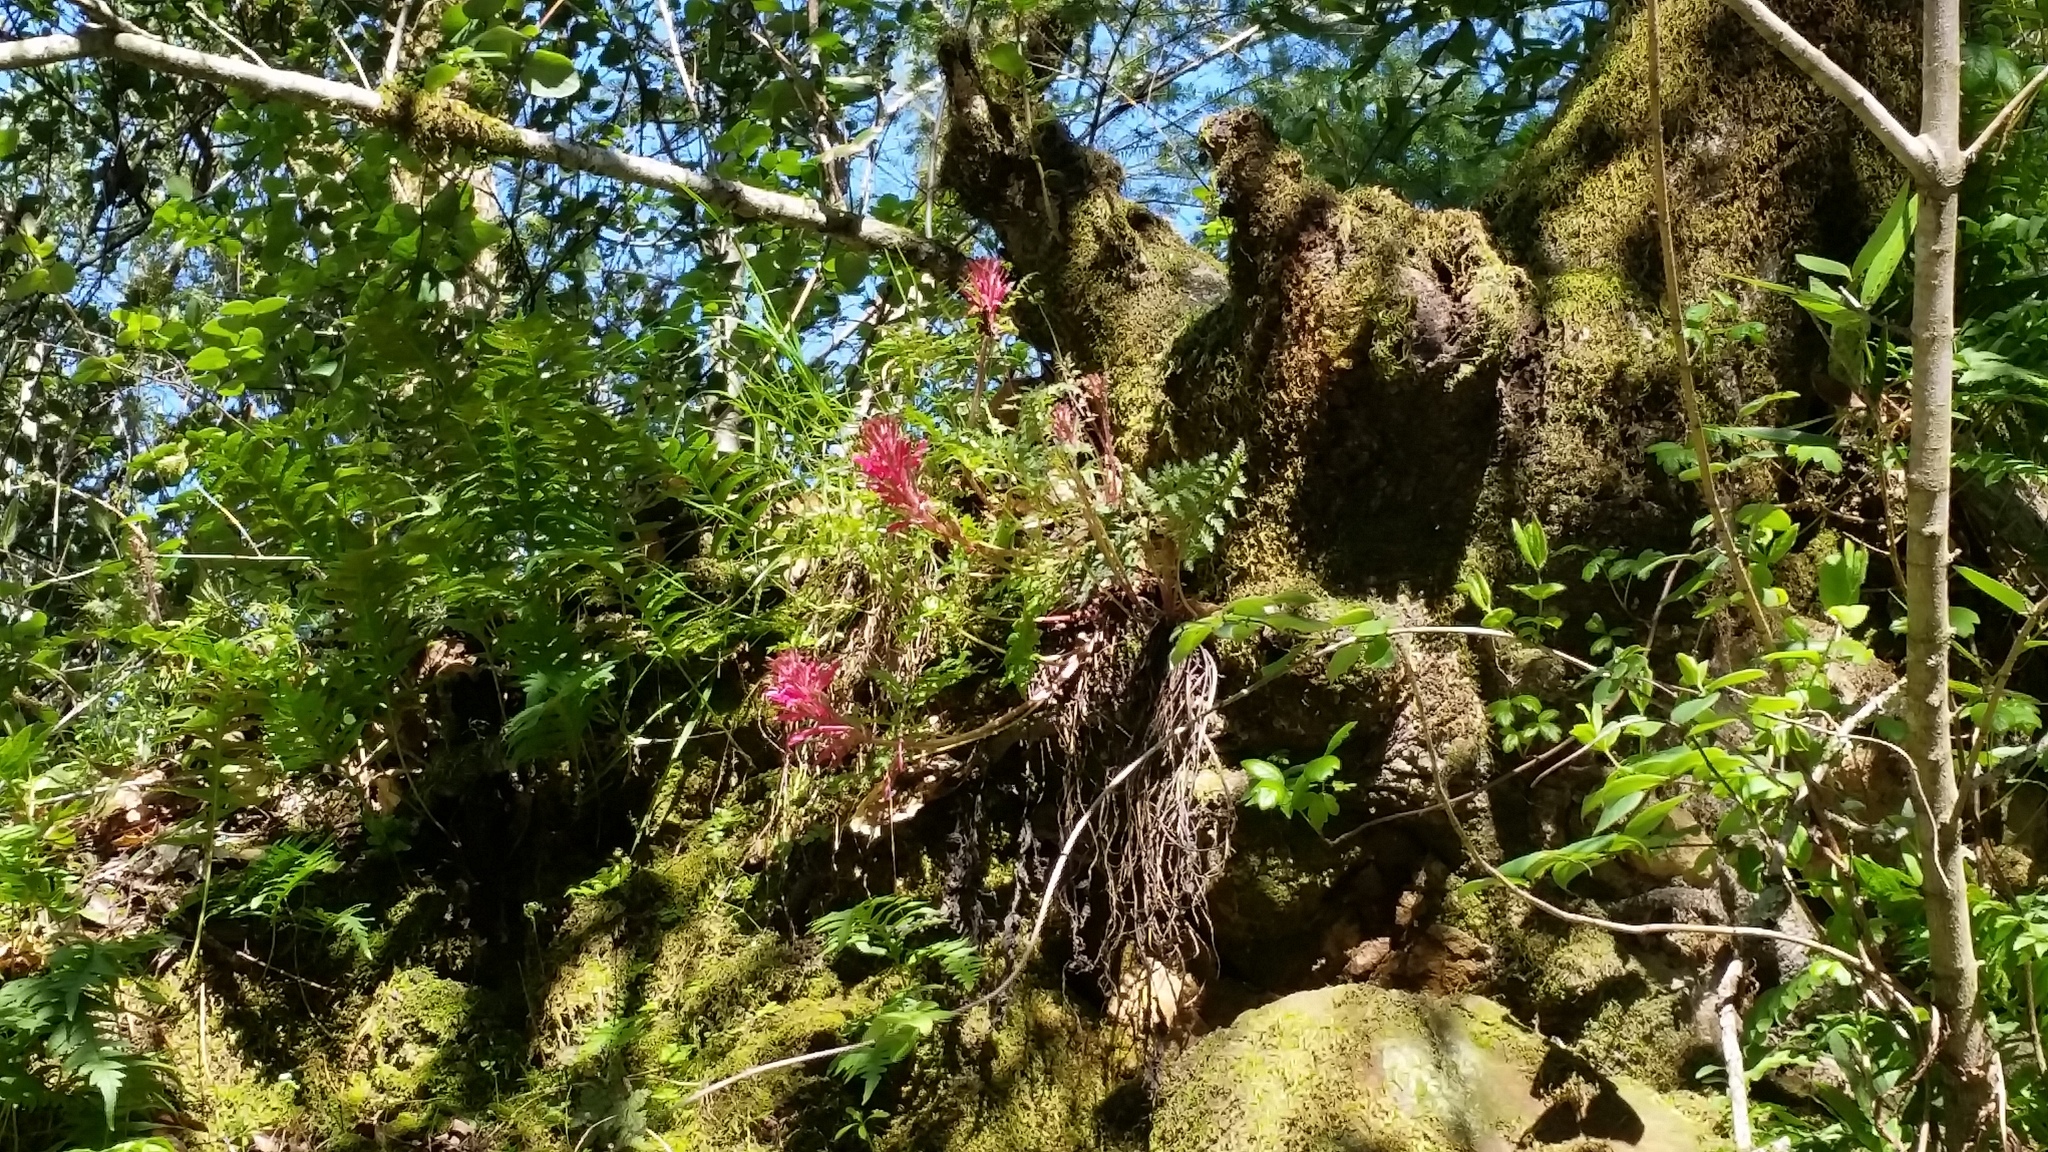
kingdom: Plantae
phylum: Tracheophyta
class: Magnoliopsida
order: Lamiales
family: Orobanchaceae
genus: Pedicularis
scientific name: Pedicularis densiflora
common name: Indian warrior
